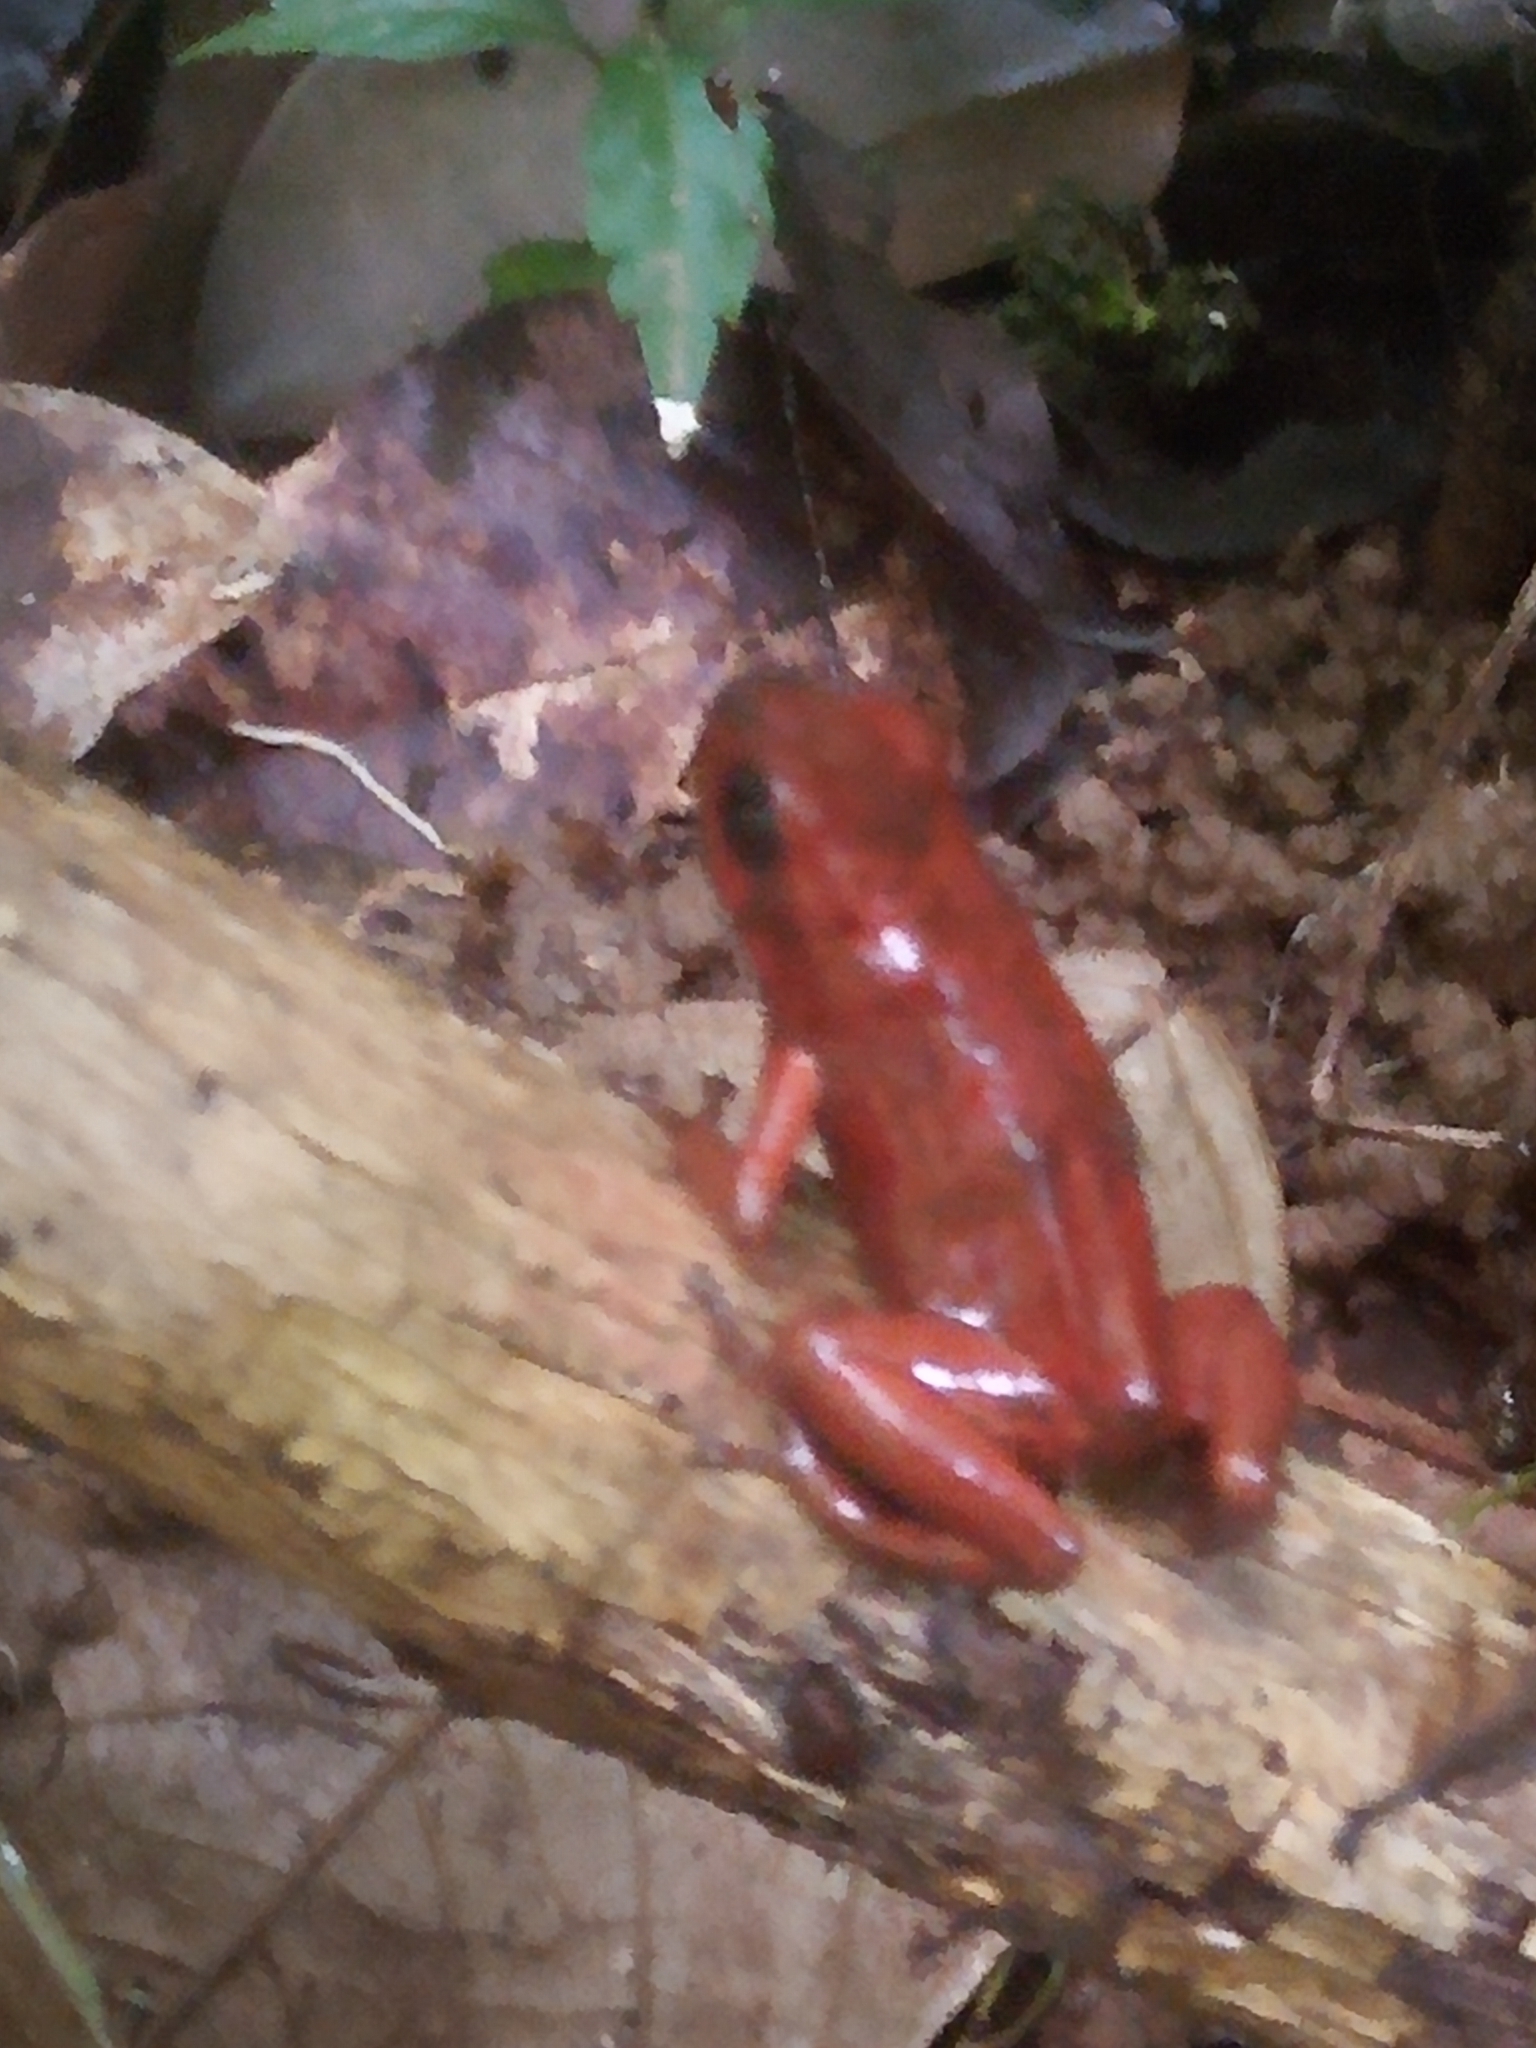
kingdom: Animalia
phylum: Chordata
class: Amphibia
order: Anura
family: Dendrobatidae
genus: Oophaga
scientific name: Oophaga pumilio
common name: Flaming poison frog
